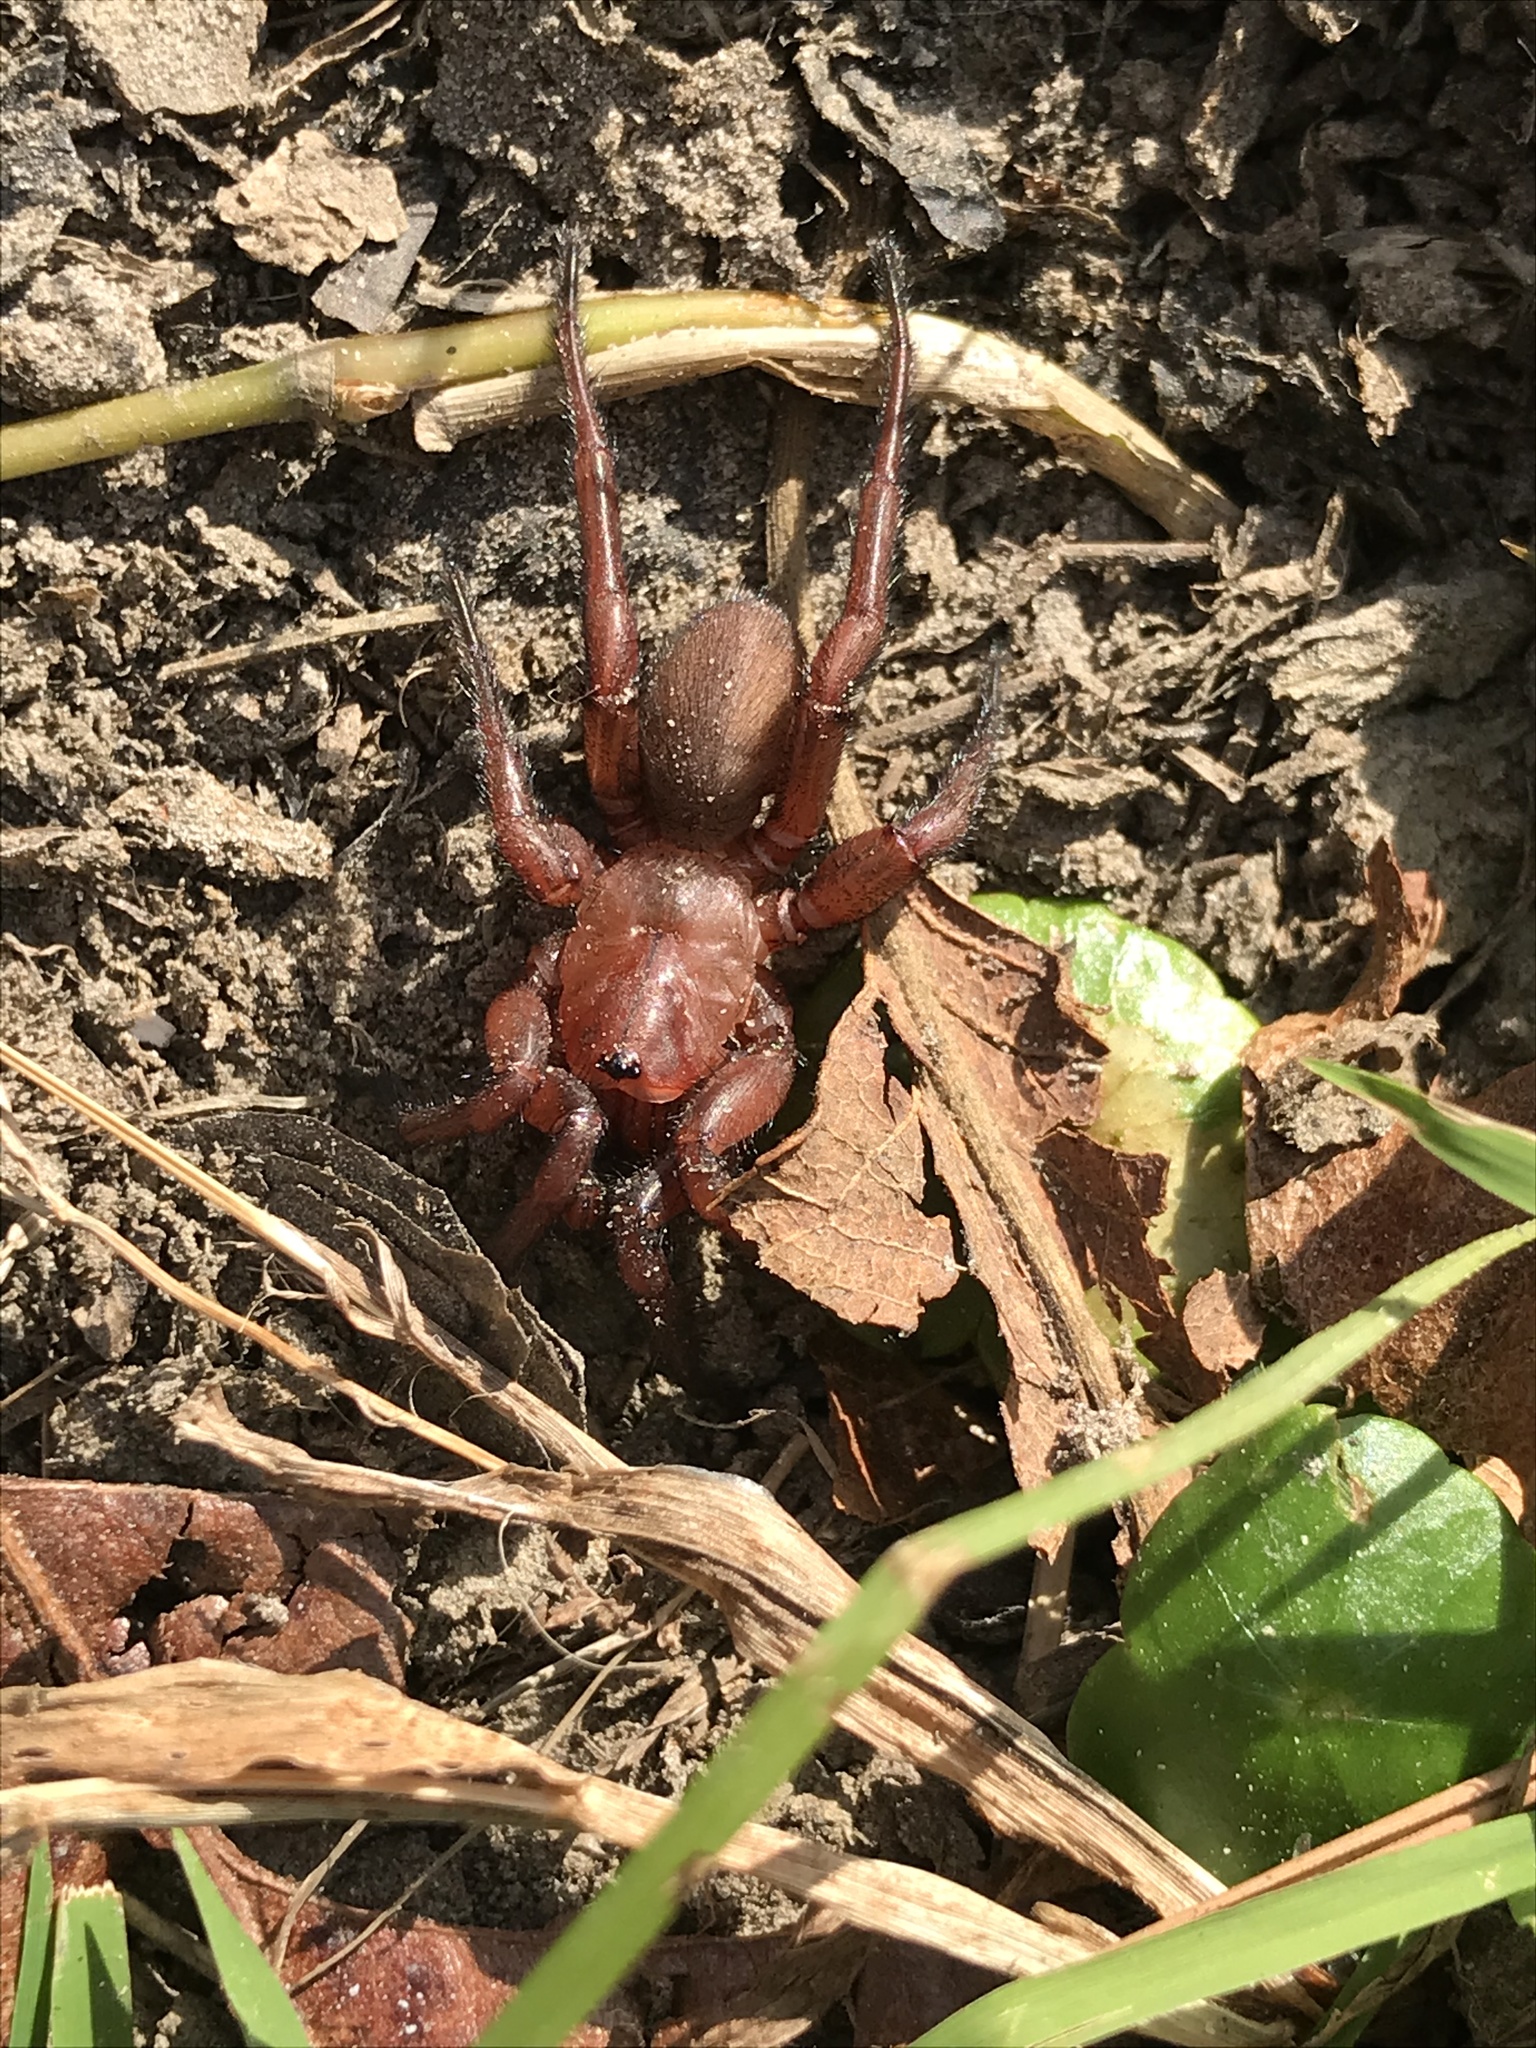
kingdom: Animalia
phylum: Arthropoda
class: Arachnida
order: Araneae
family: Euctenizidae
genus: Myrmekiaphila
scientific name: Myrmekiaphila comstocki
